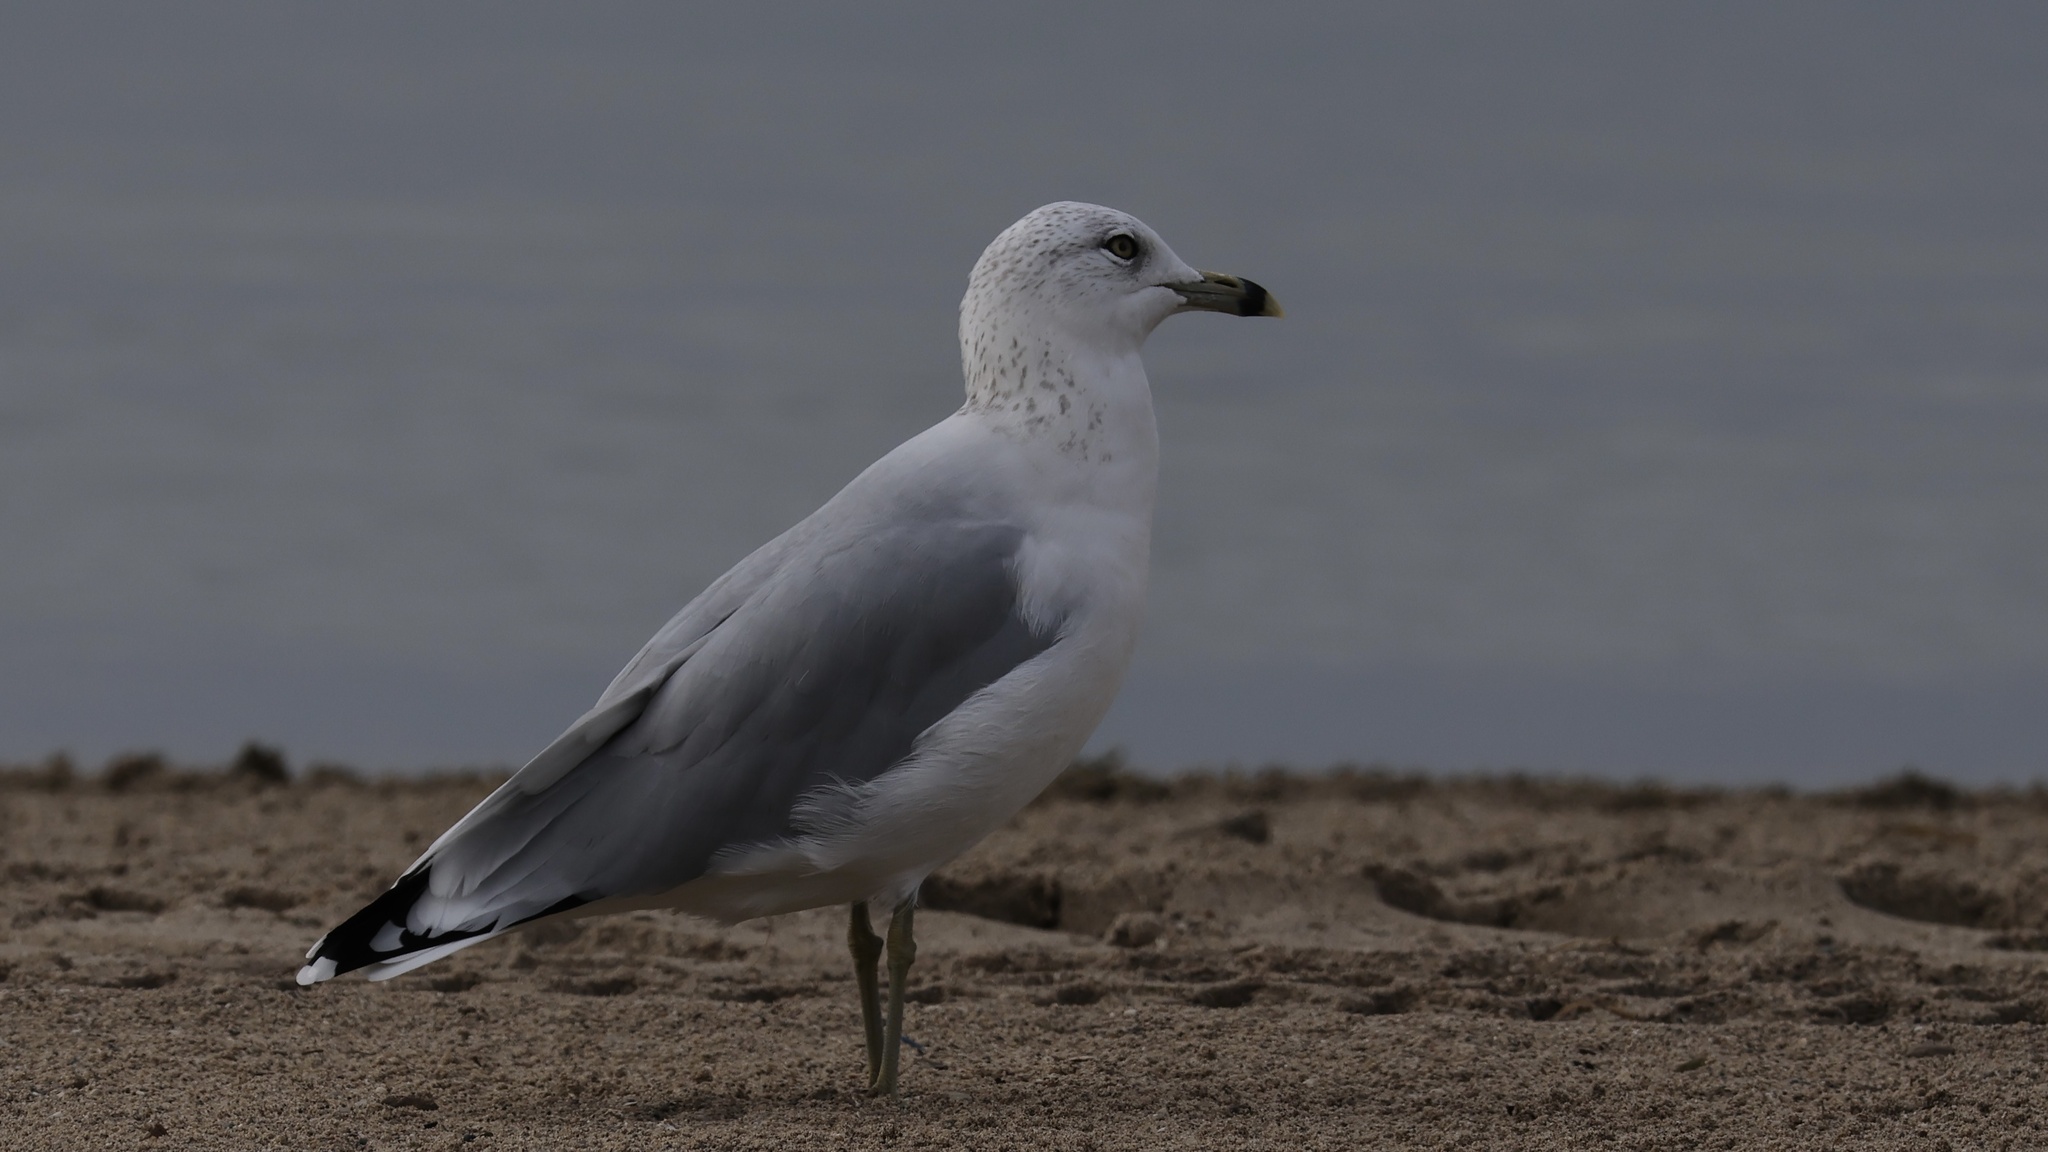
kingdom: Animalia
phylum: Chordata
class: Aves
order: Charadriiformes
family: Laridae
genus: Larus
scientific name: Larus delawarensis
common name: Ring-billed gull
